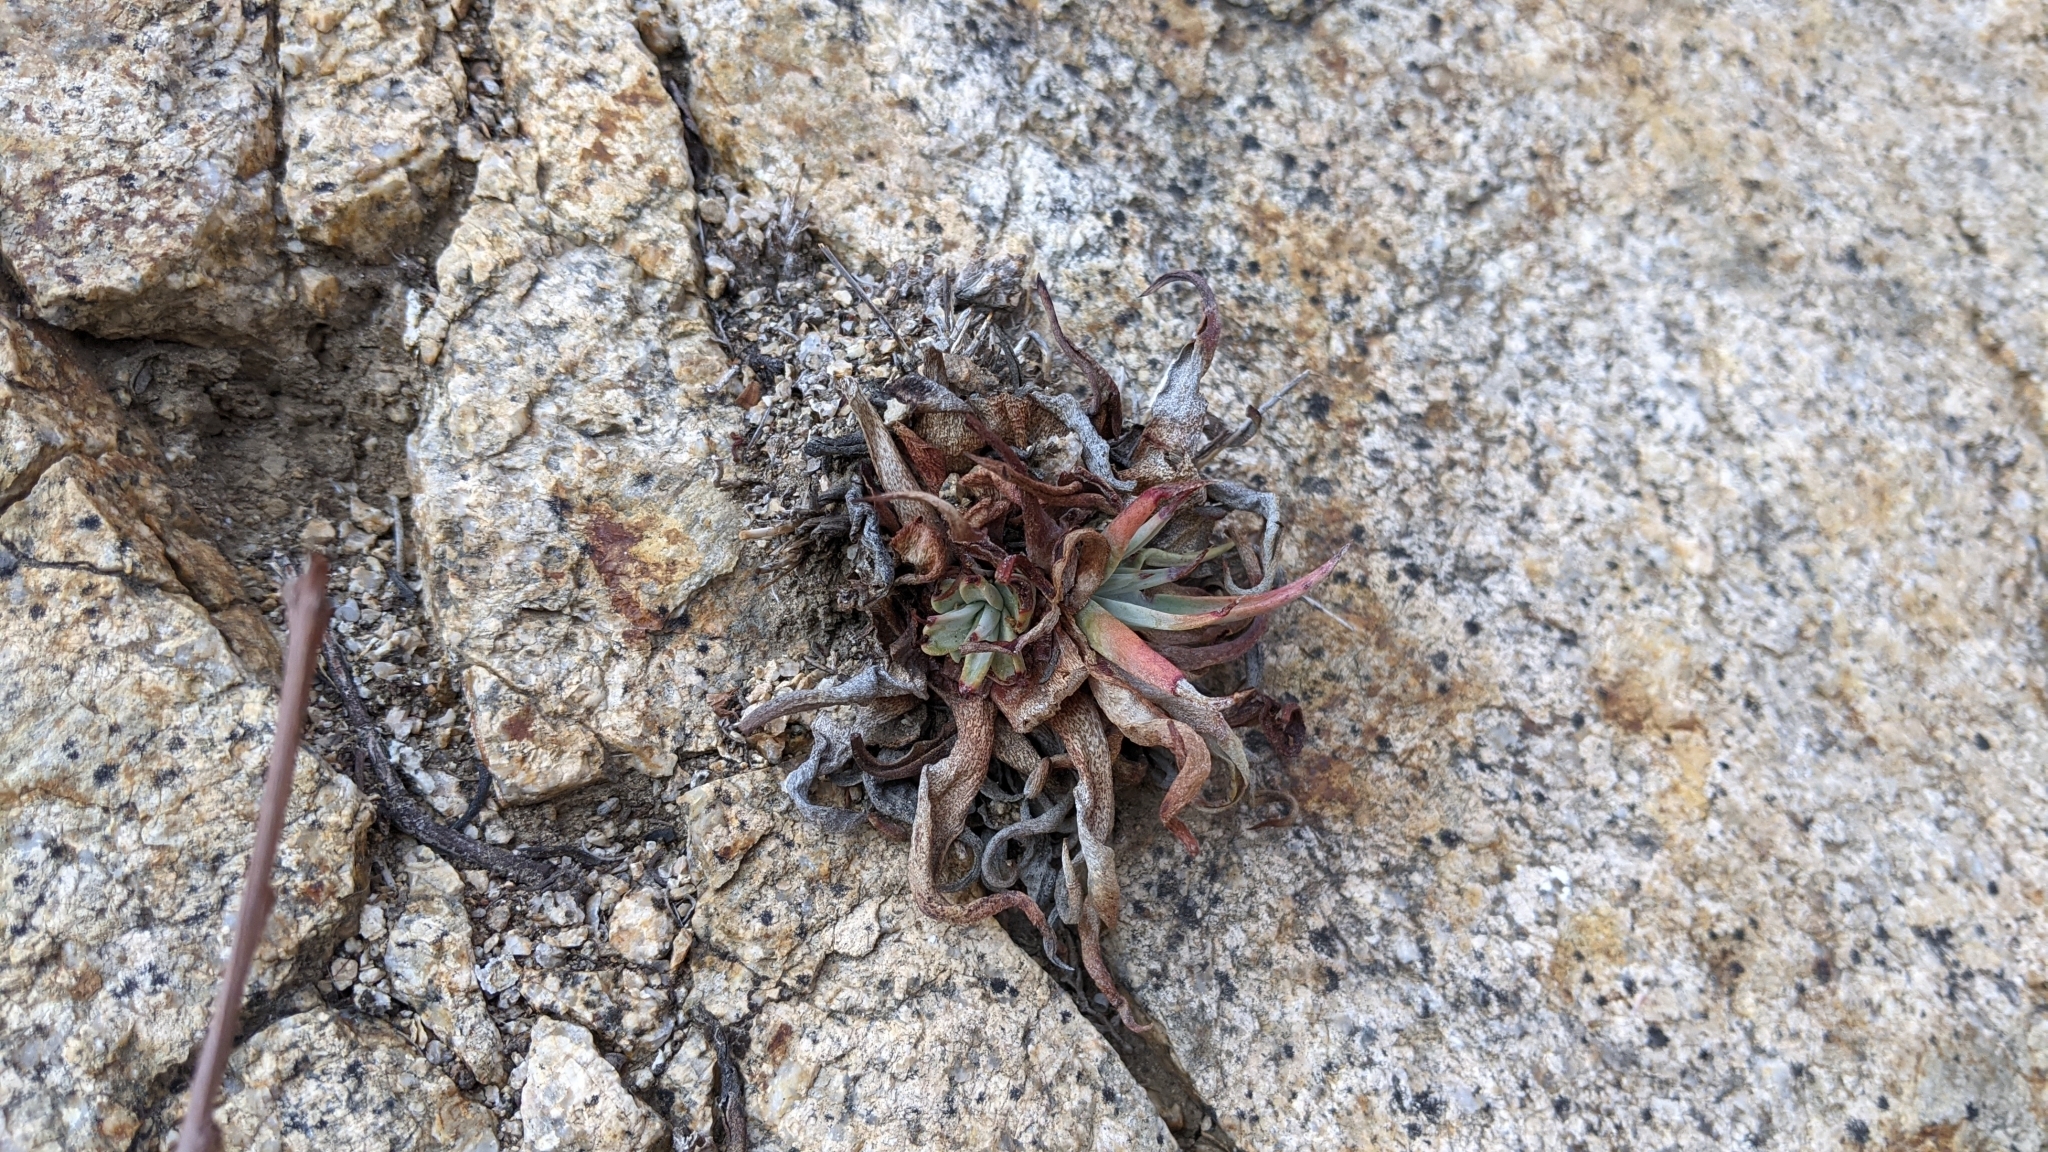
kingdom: Plantae
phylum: Tracheophyta
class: Magnoliopsida
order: Saxifragales
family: Crassulaceae
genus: Dudleya
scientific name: Dudleya saxosa
